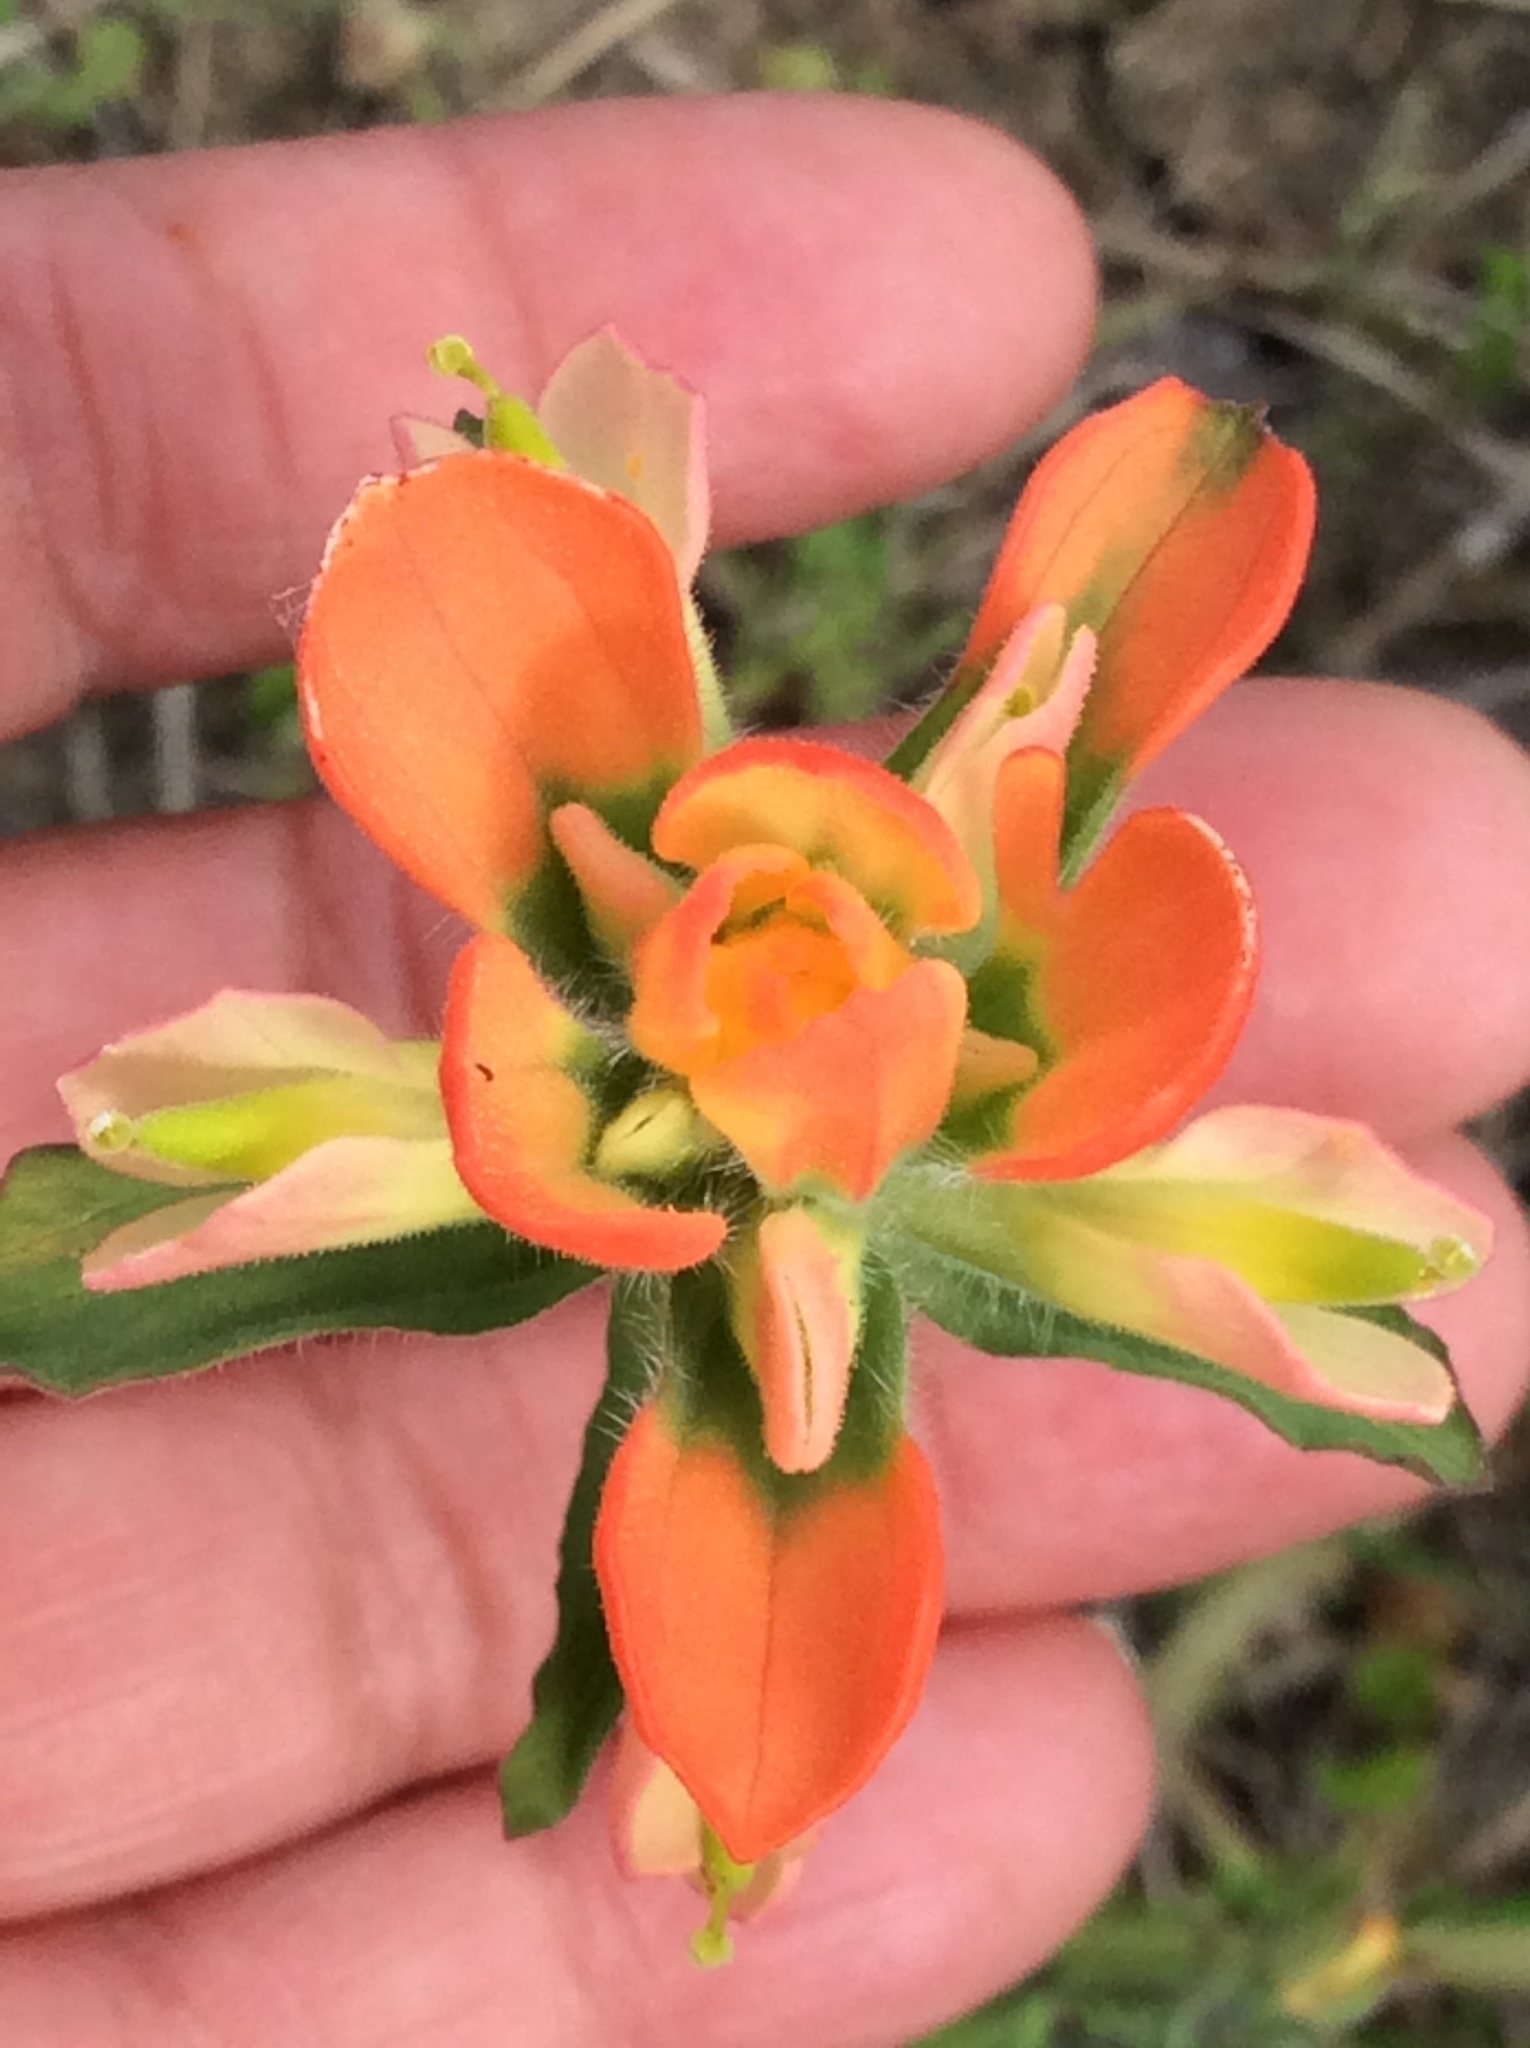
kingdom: Plantae
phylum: Tracheophyta
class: Magnoliopsida
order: Lamiales
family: Orobanchaceae
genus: Castilleja
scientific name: Castilleja indivisa
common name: Texas paintbrush
